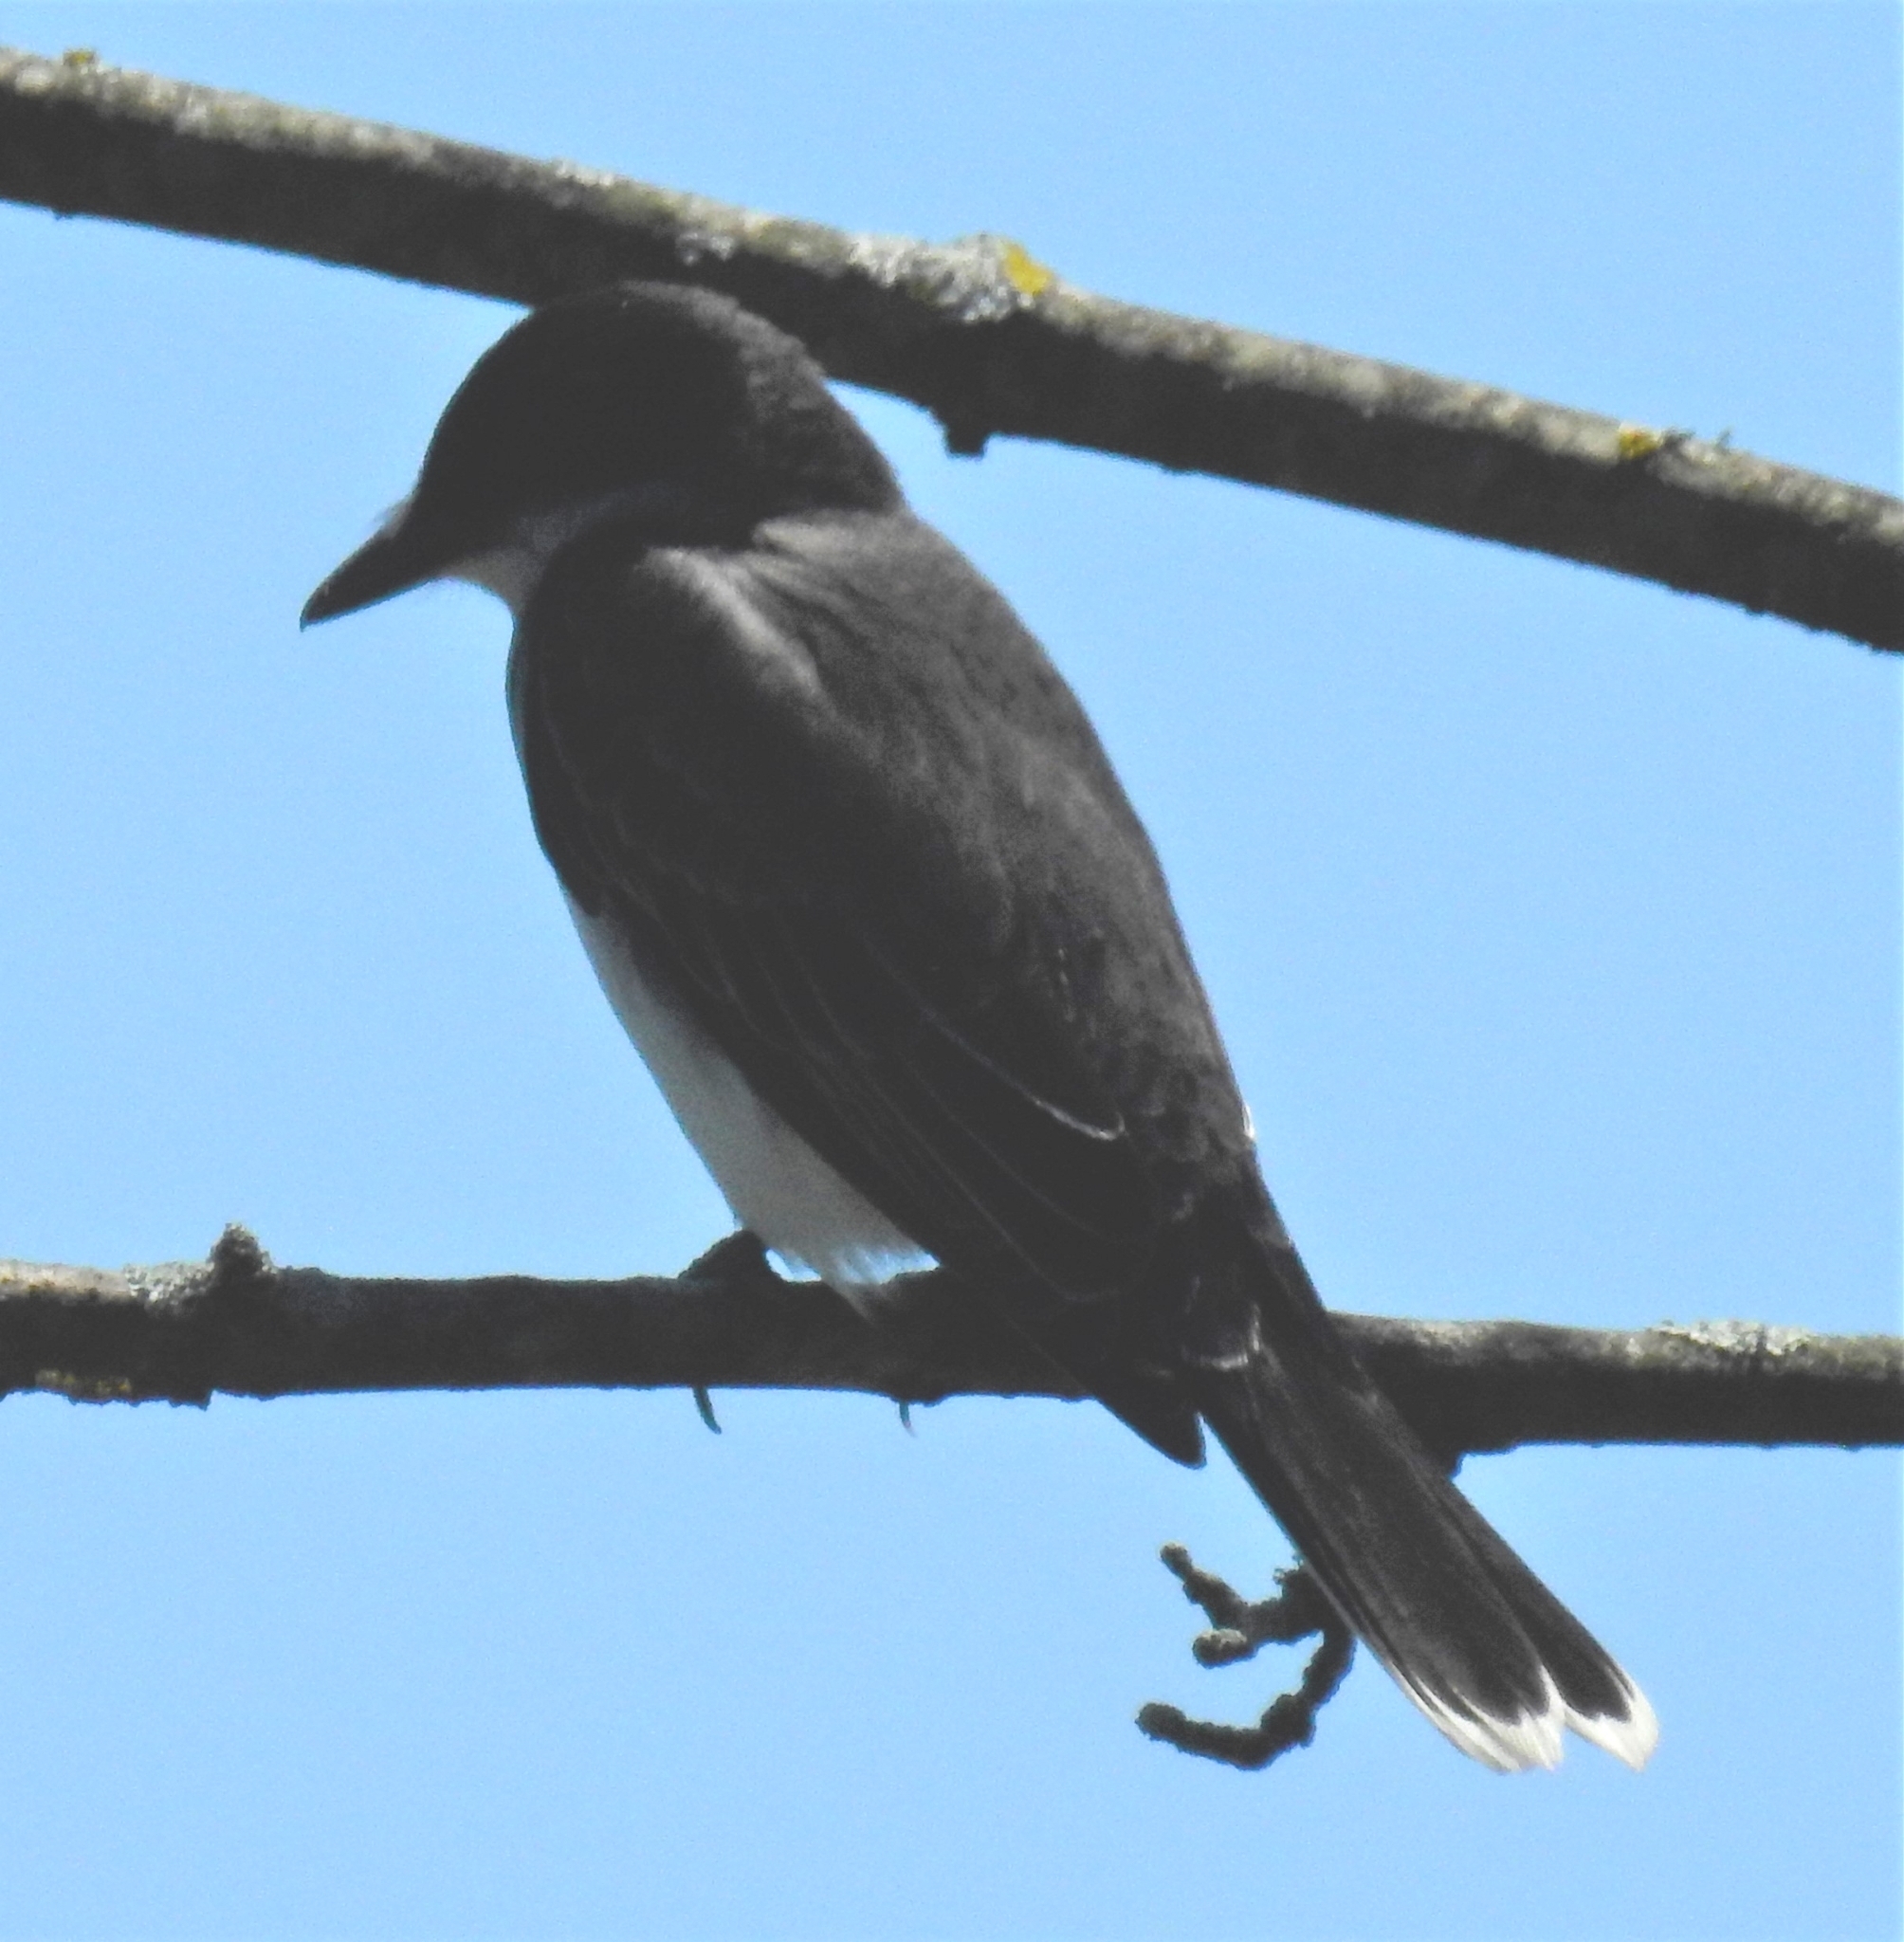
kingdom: Animalia
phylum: Chordata
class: Aves
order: Passeriformes
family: Tyrannidae
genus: Tyrannus
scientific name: Tyrannus tyrannus
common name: Eastern kingbird
